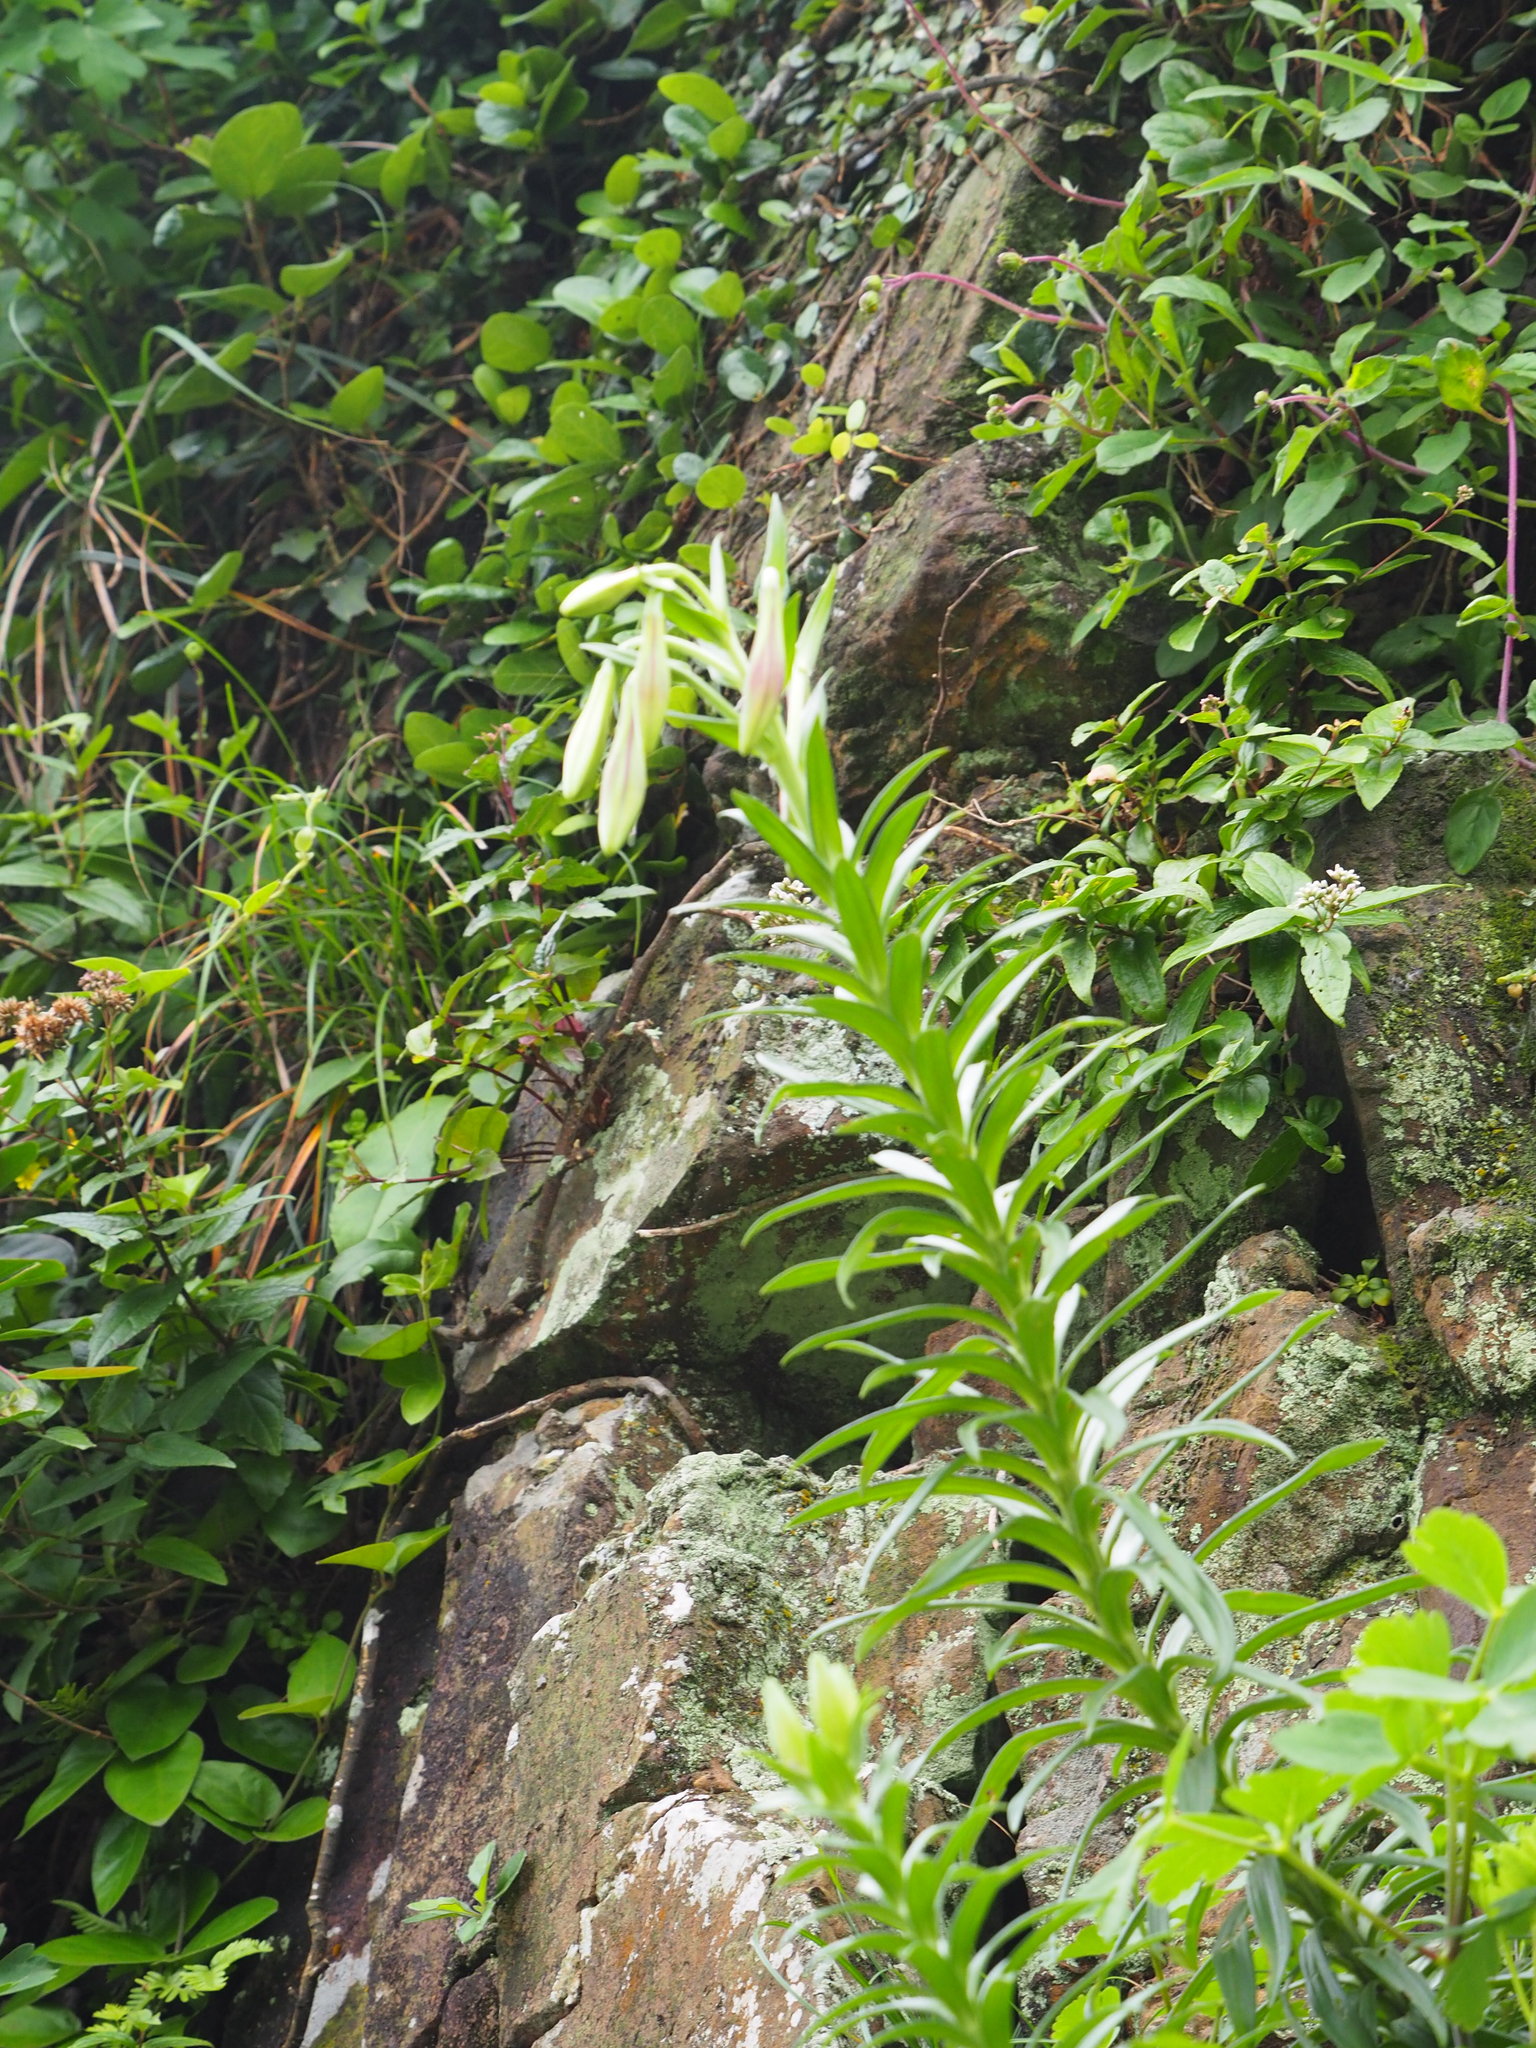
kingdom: Plantae
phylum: Tracheophyta
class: Liliopsida
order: Liliales
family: Liliaceae
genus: Lilium
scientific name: Lilium longiflorum
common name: Easter lily
